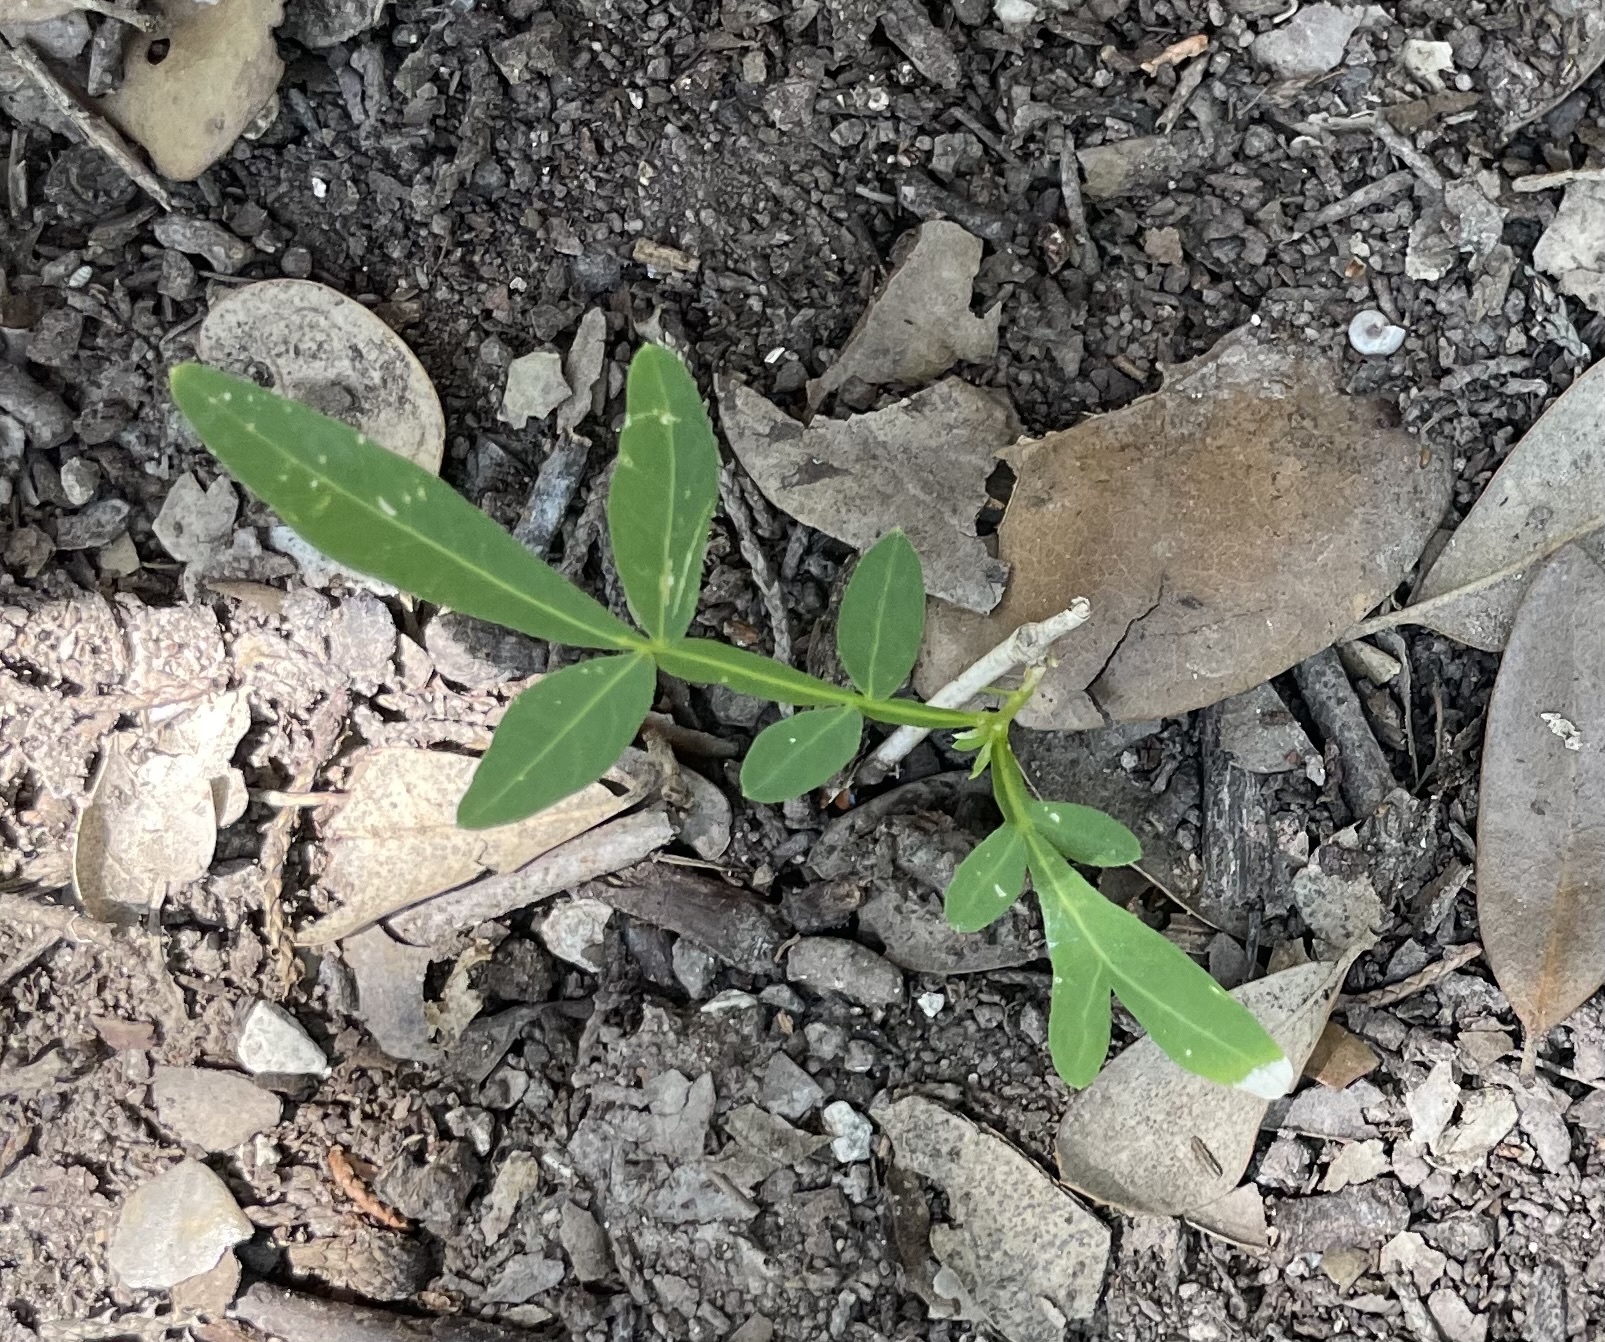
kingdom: Plantae
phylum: Tracheophyta
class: Magnoliopsida
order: Sapindales
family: Sapindaceae
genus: Sapindus
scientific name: Sapindus drummondii
